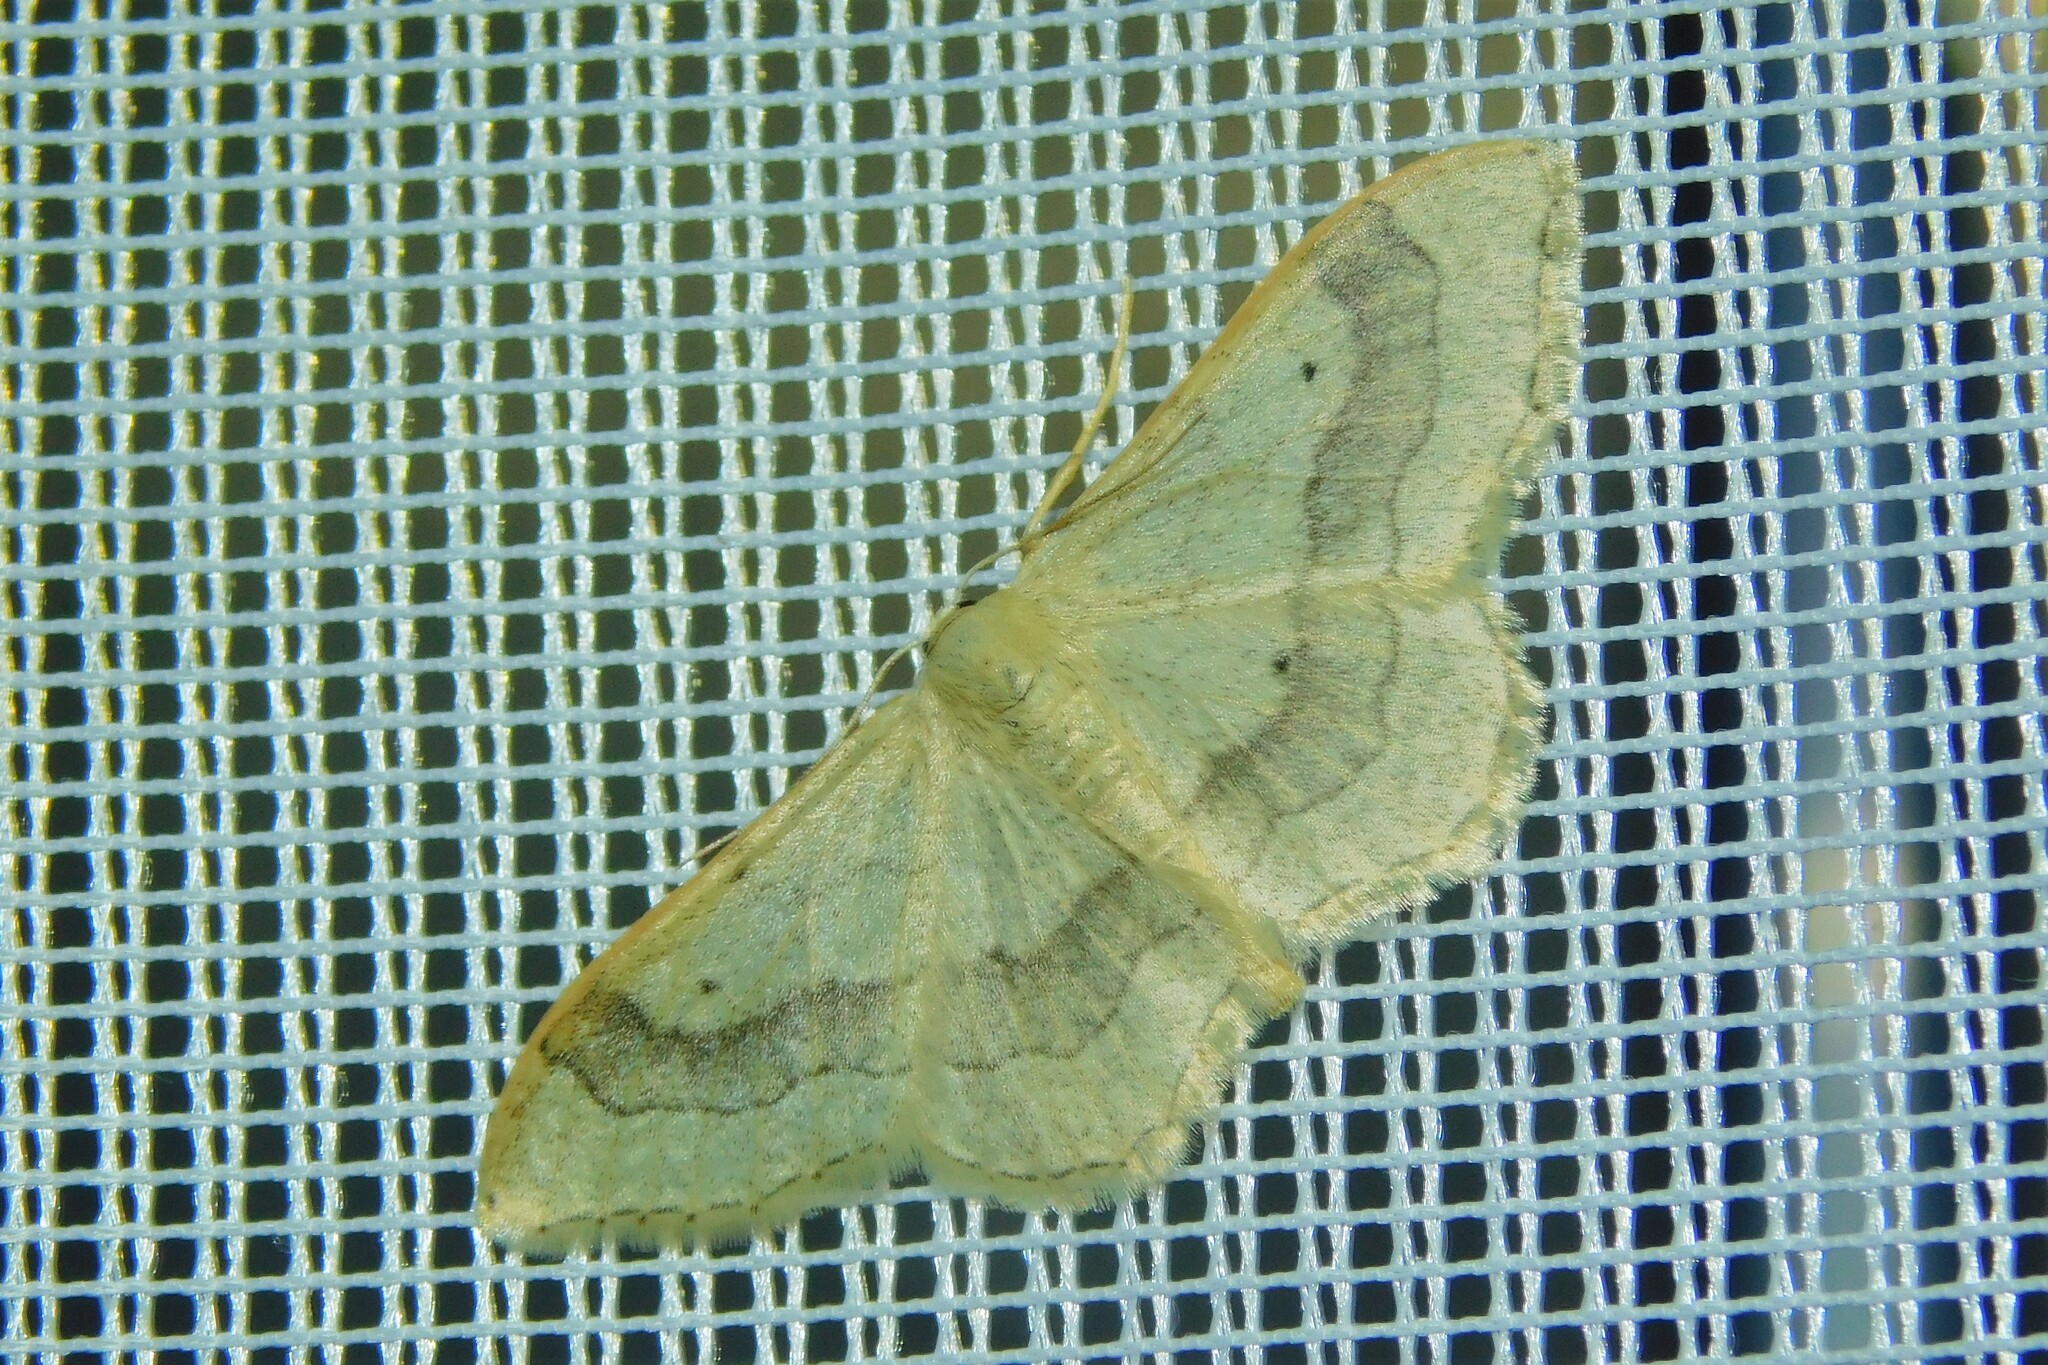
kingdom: Animalia
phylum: Arthropoda
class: Insecta
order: Lepidoptera
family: Geometridae
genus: Idaea
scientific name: Idaea aversata
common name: Riband wave
